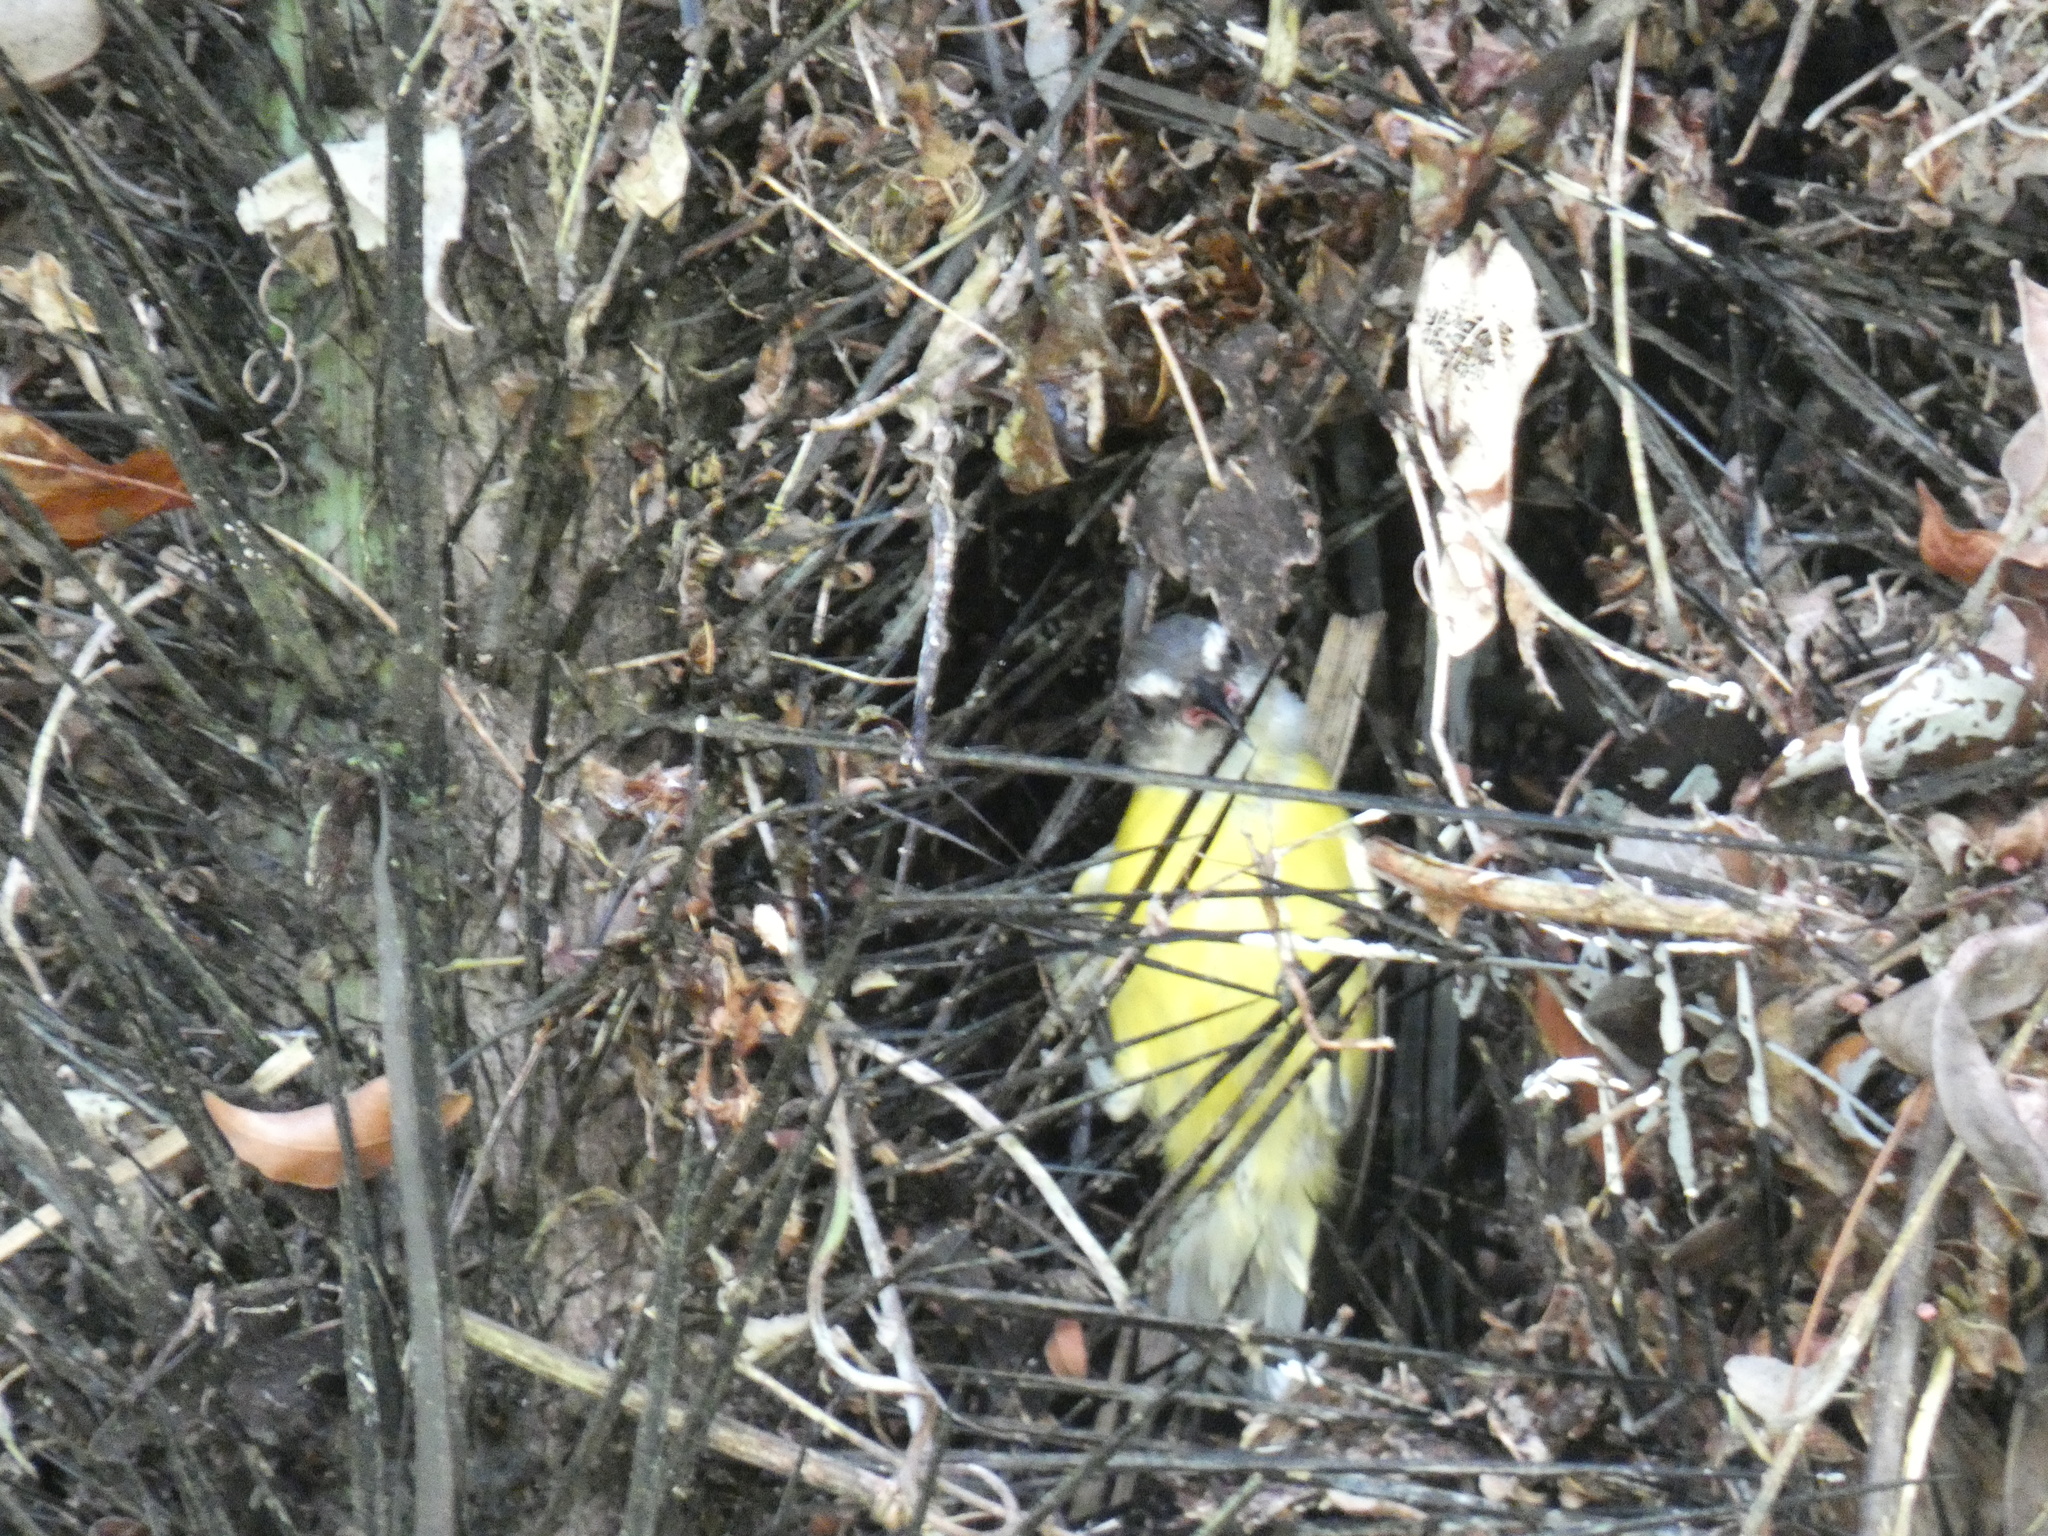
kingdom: Animalia
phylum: Chordata
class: Aves
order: Passeriformes
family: Thraupidae
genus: Coereba
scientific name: Coereba flaveola
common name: Bananaquit
